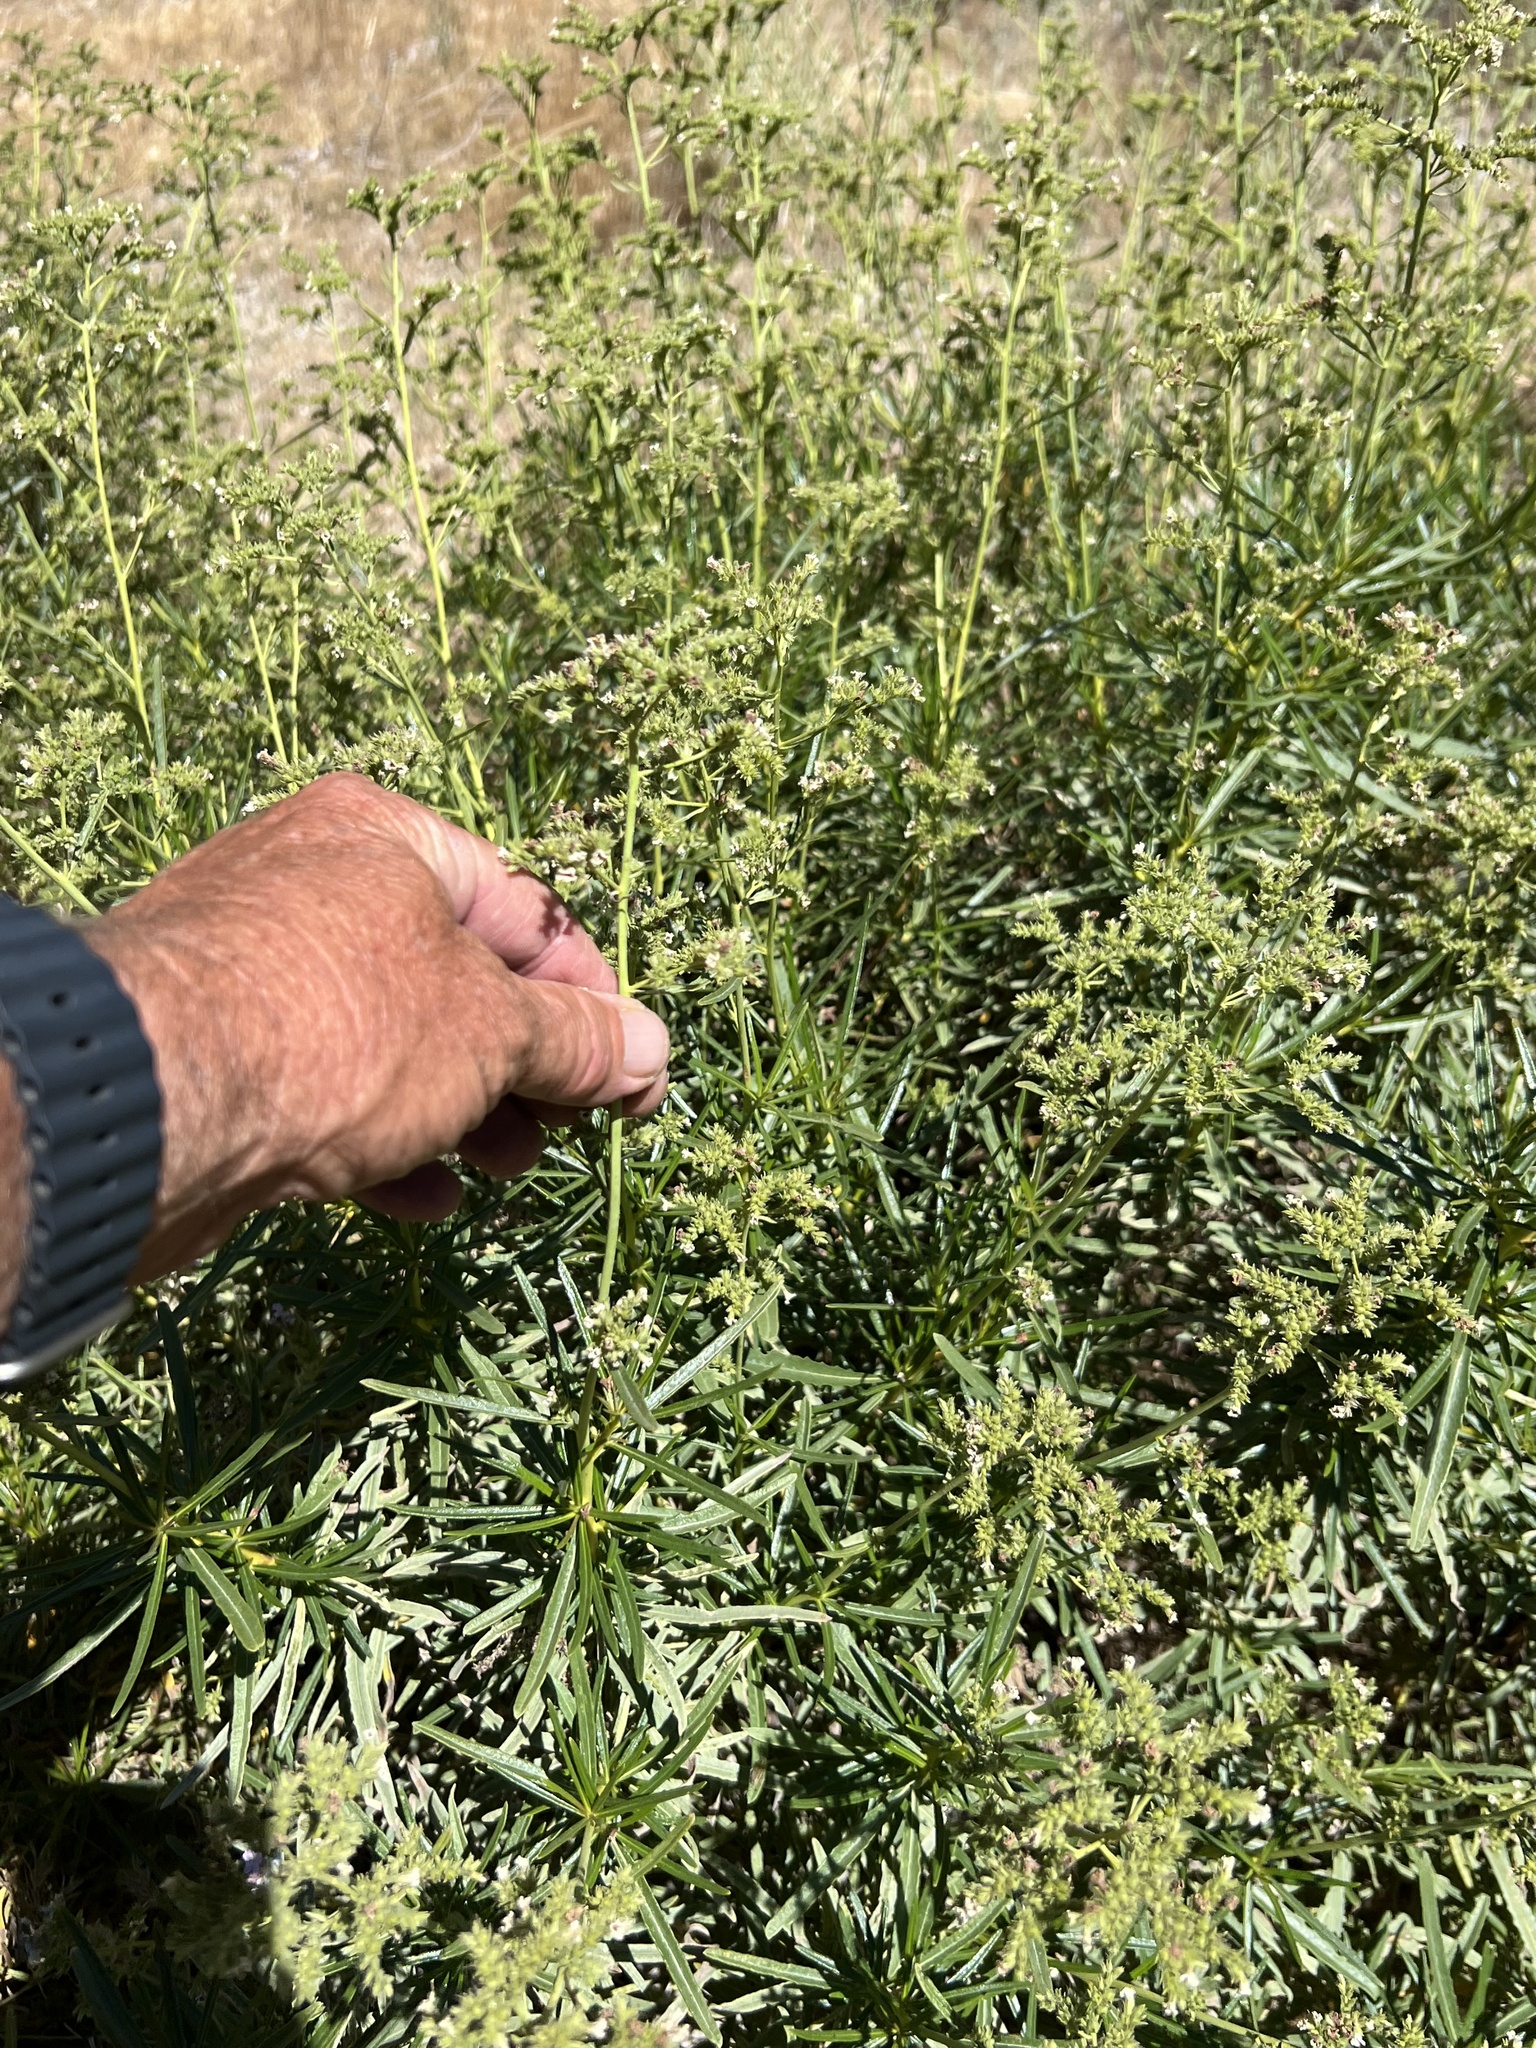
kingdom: Plantae
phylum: Tracheophyta
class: Magnoliopsida
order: Boraginales
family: Namaceae
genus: Eriodictyon
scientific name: Eriodictyon angustifolium
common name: Narrow-leaf yerba santa
